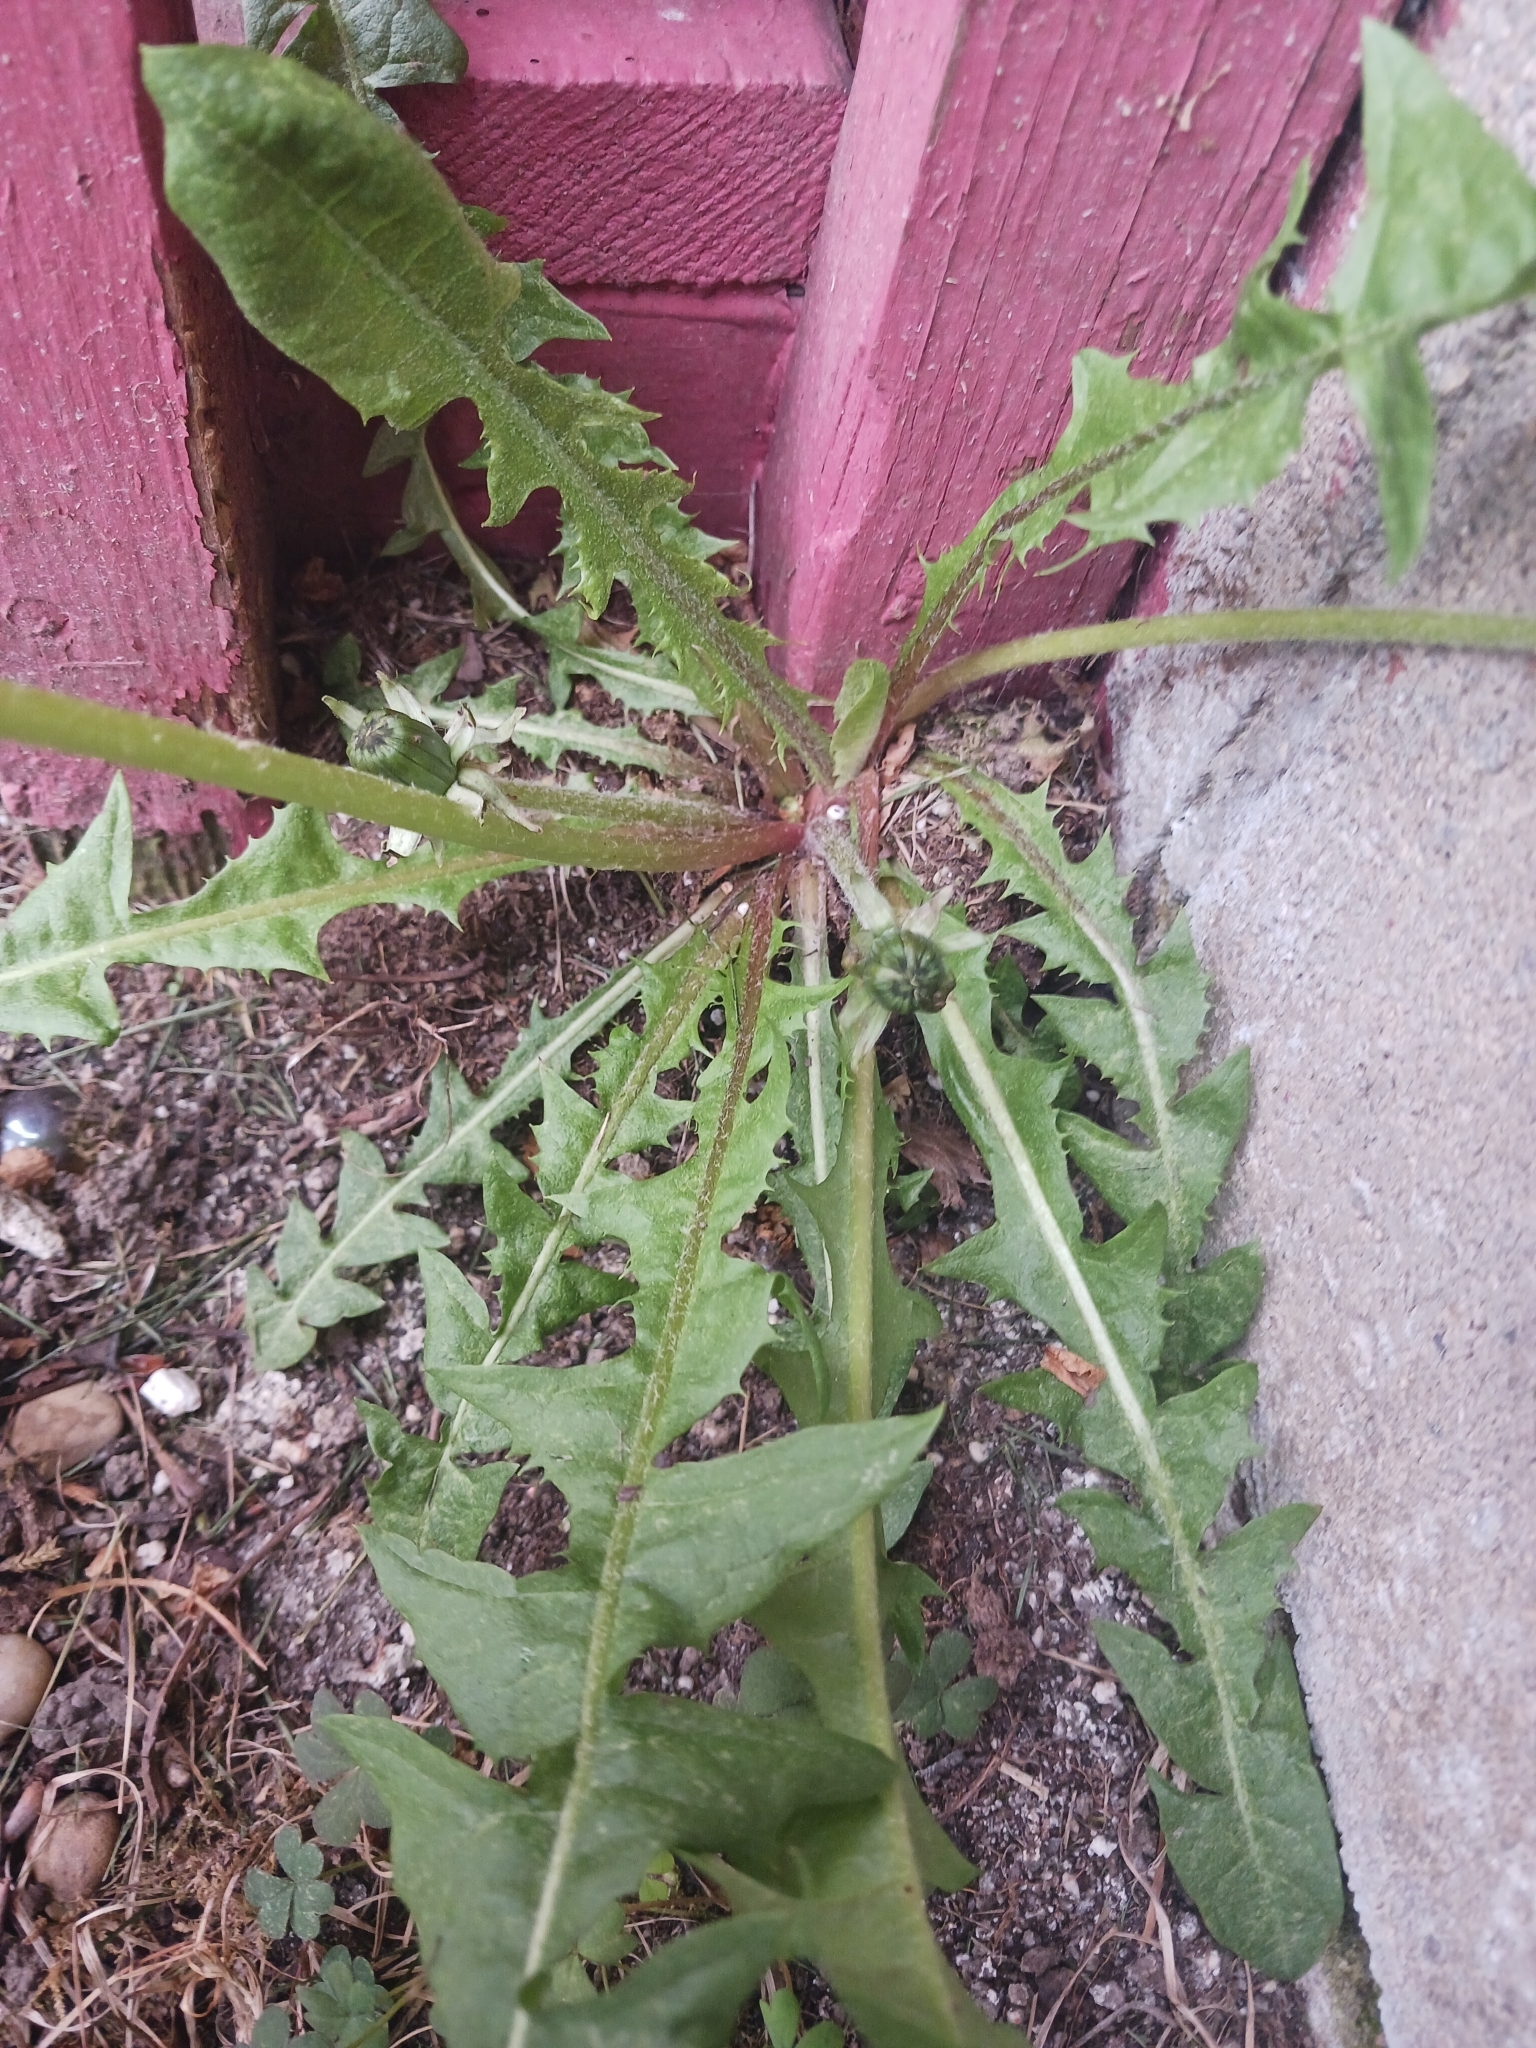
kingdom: Plantae
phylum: Tracheophyta
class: Magnoliopsida
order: Asterales
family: Asteraceae
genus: Taraxacum
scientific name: Taraxacum
